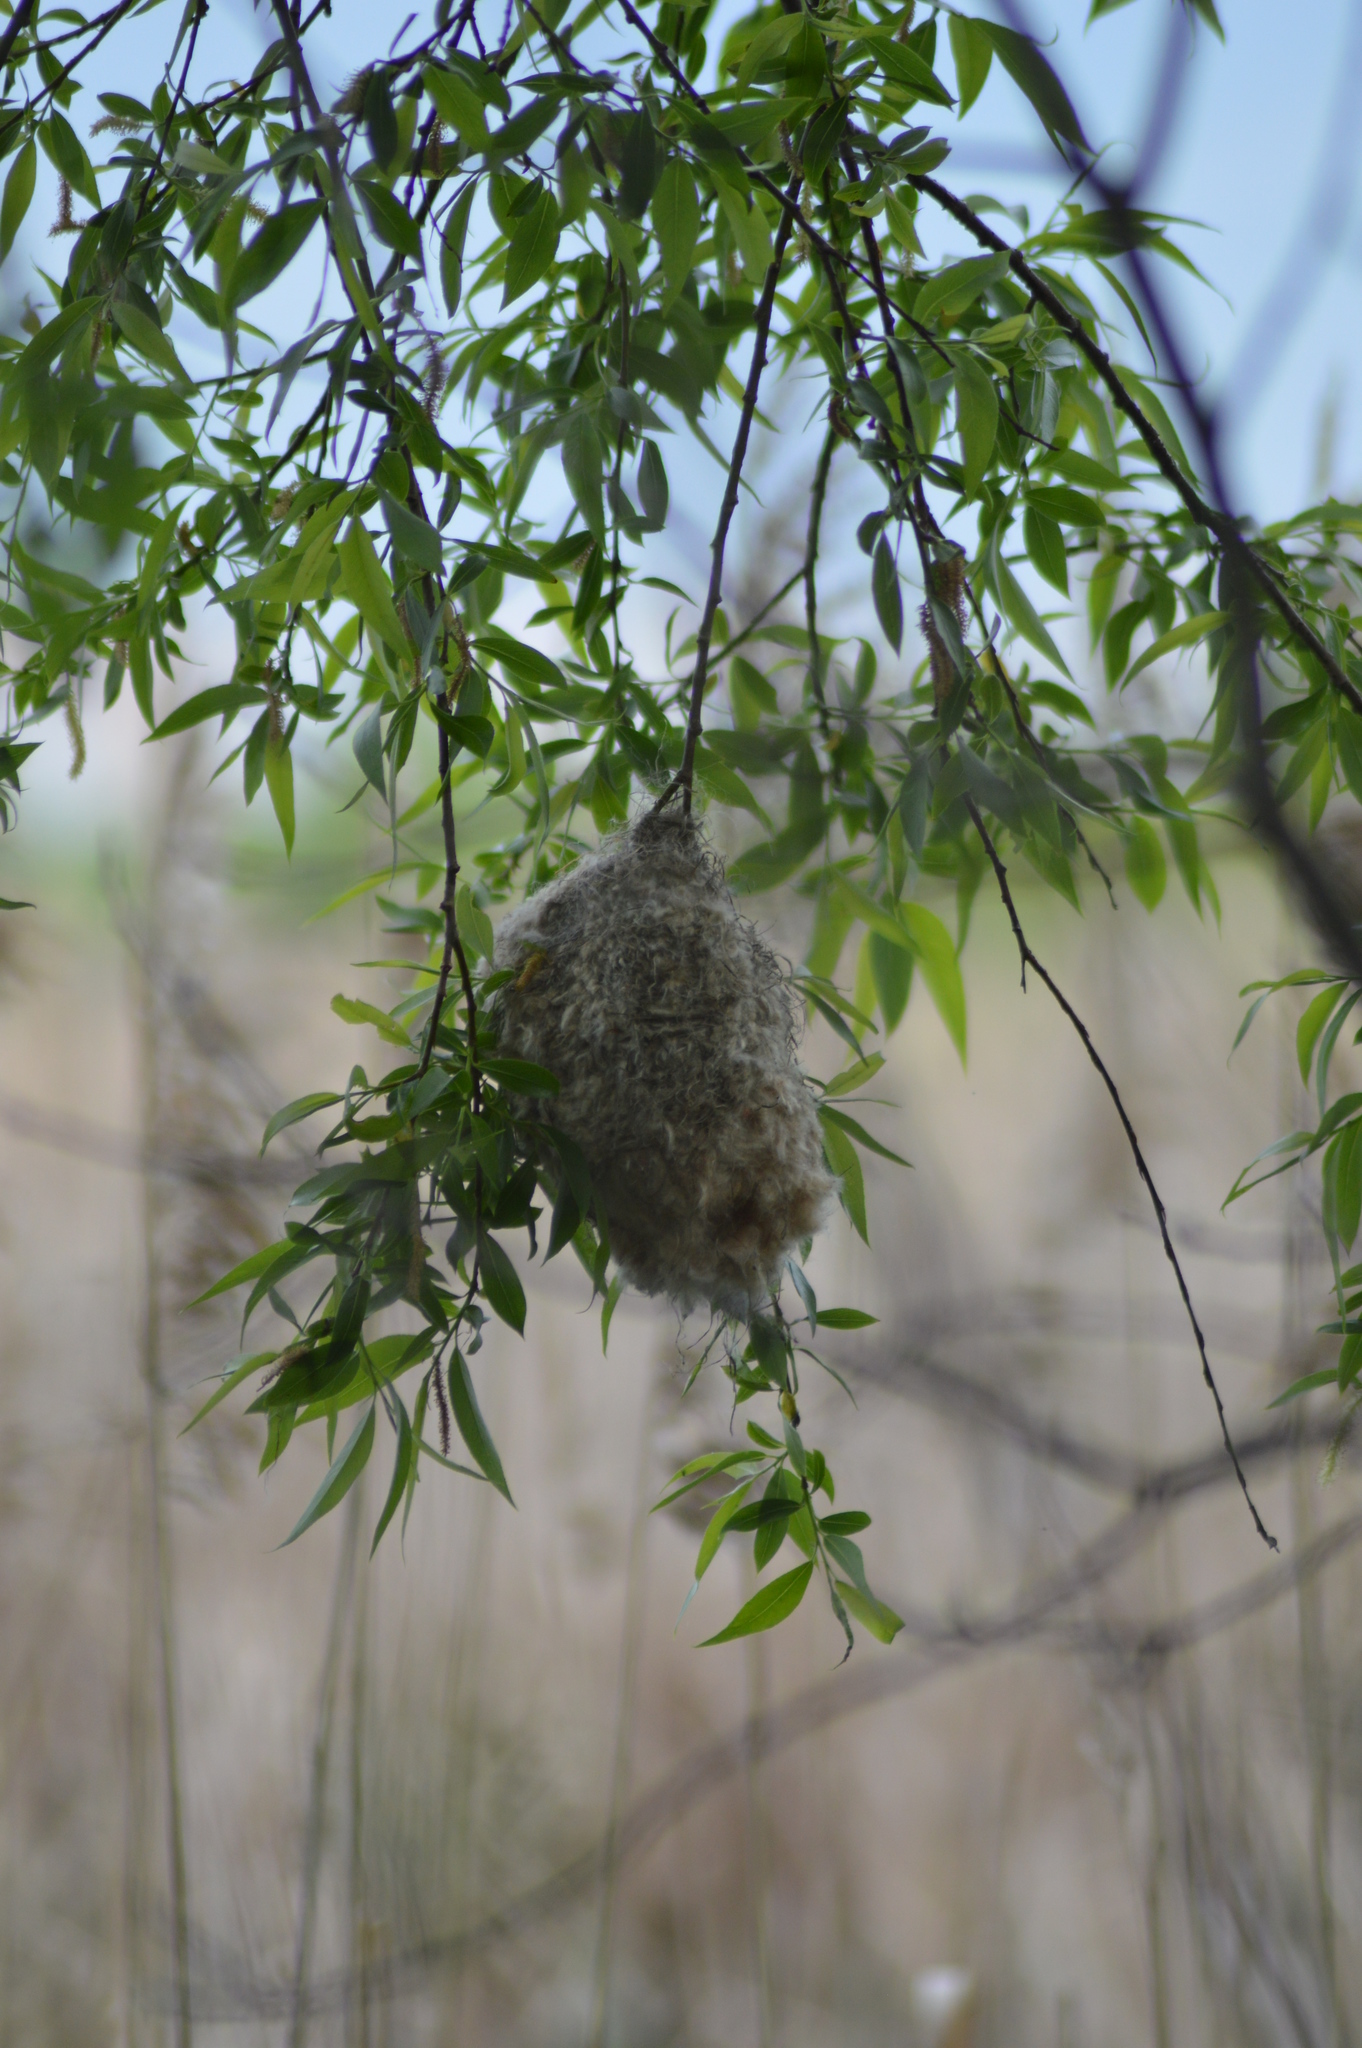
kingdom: Animalia
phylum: Chordata
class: Aves
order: Passeriformes
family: Remizidae
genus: Remiz
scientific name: Remiz pendulinus
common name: Eurasian penduline tit
